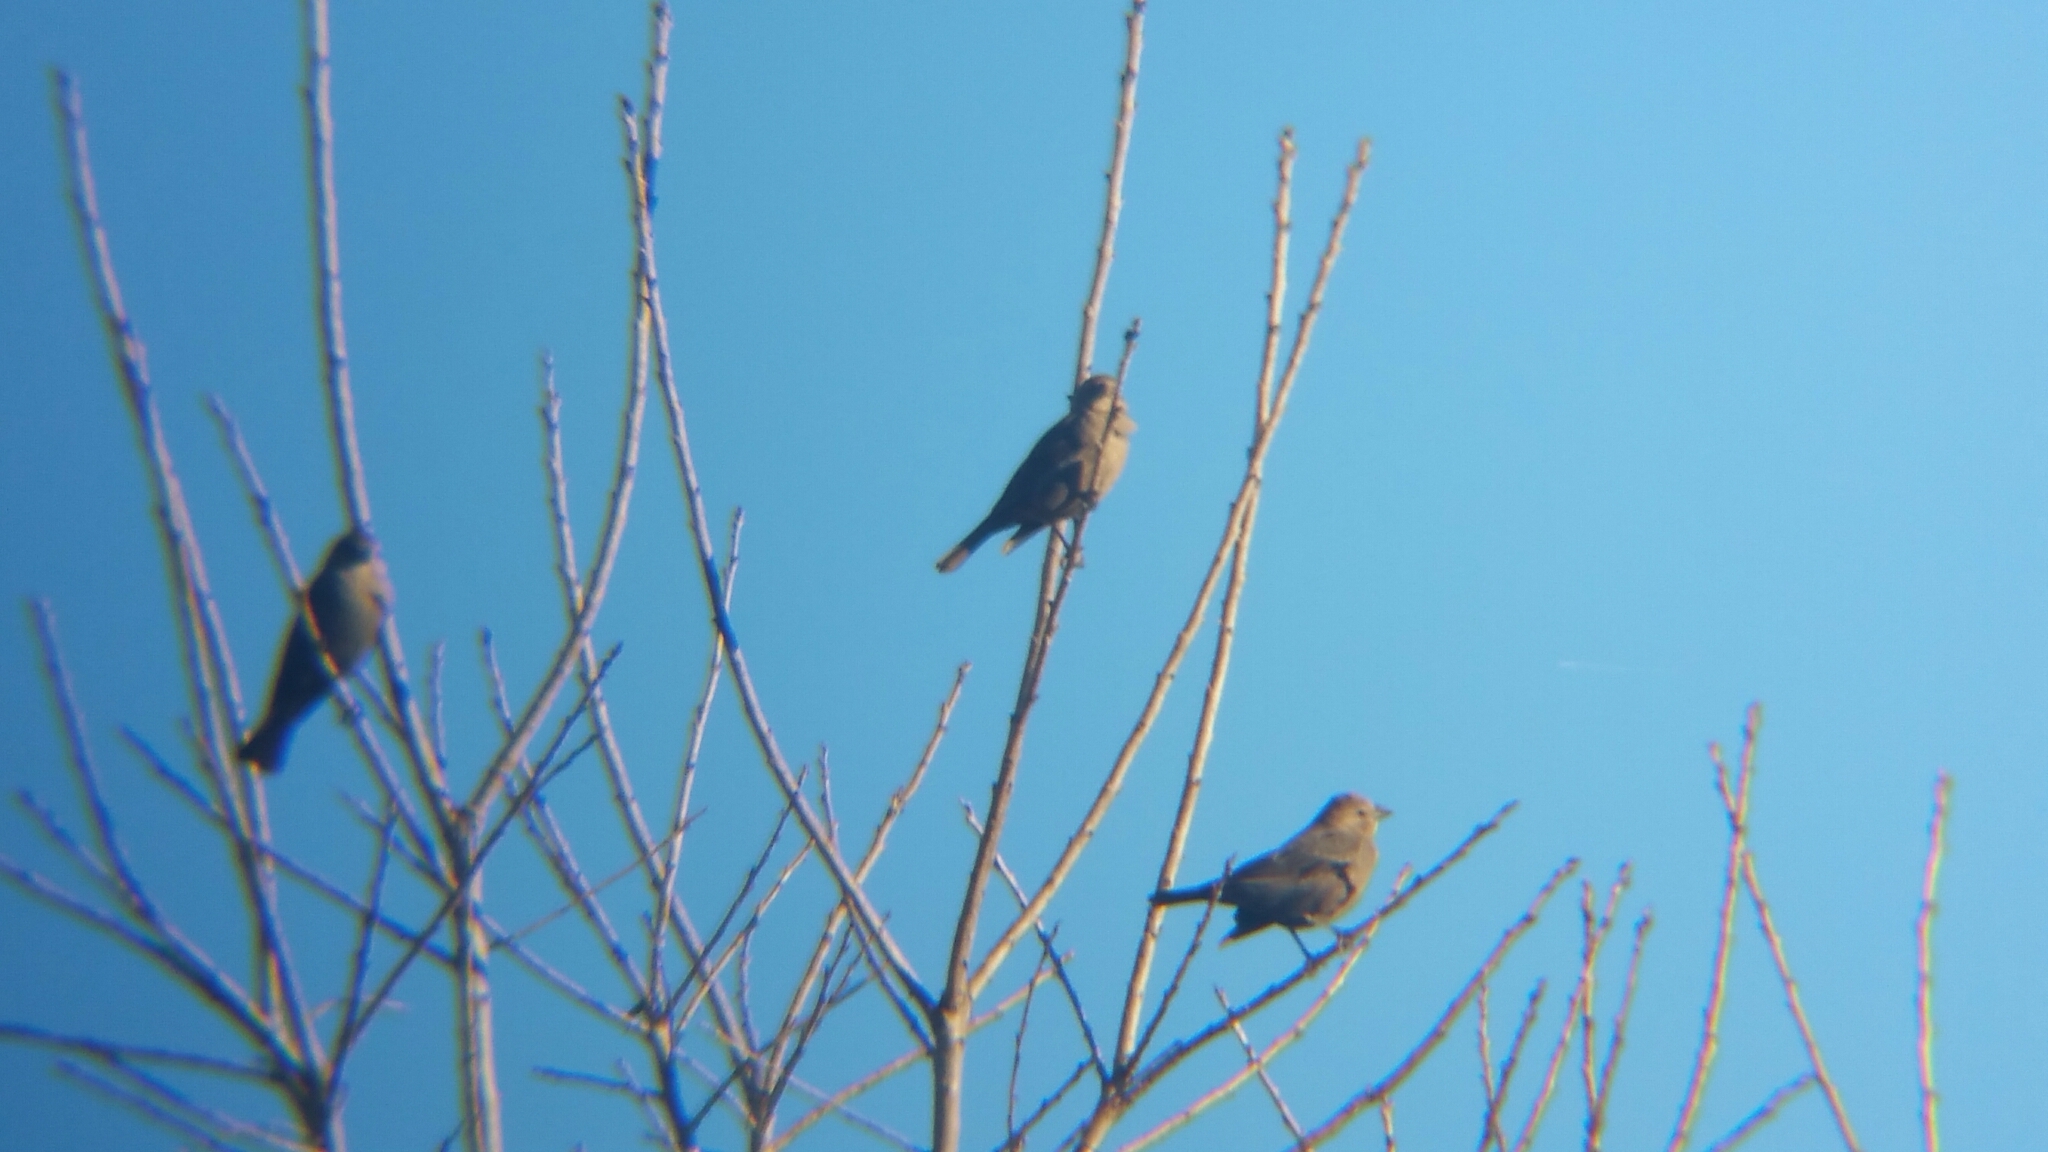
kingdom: Animalia
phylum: Chordata
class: Aves
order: Passeriformes
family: Icteridae
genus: Molothrus
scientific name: Molothrus ater
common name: Brown-headed cowbird
